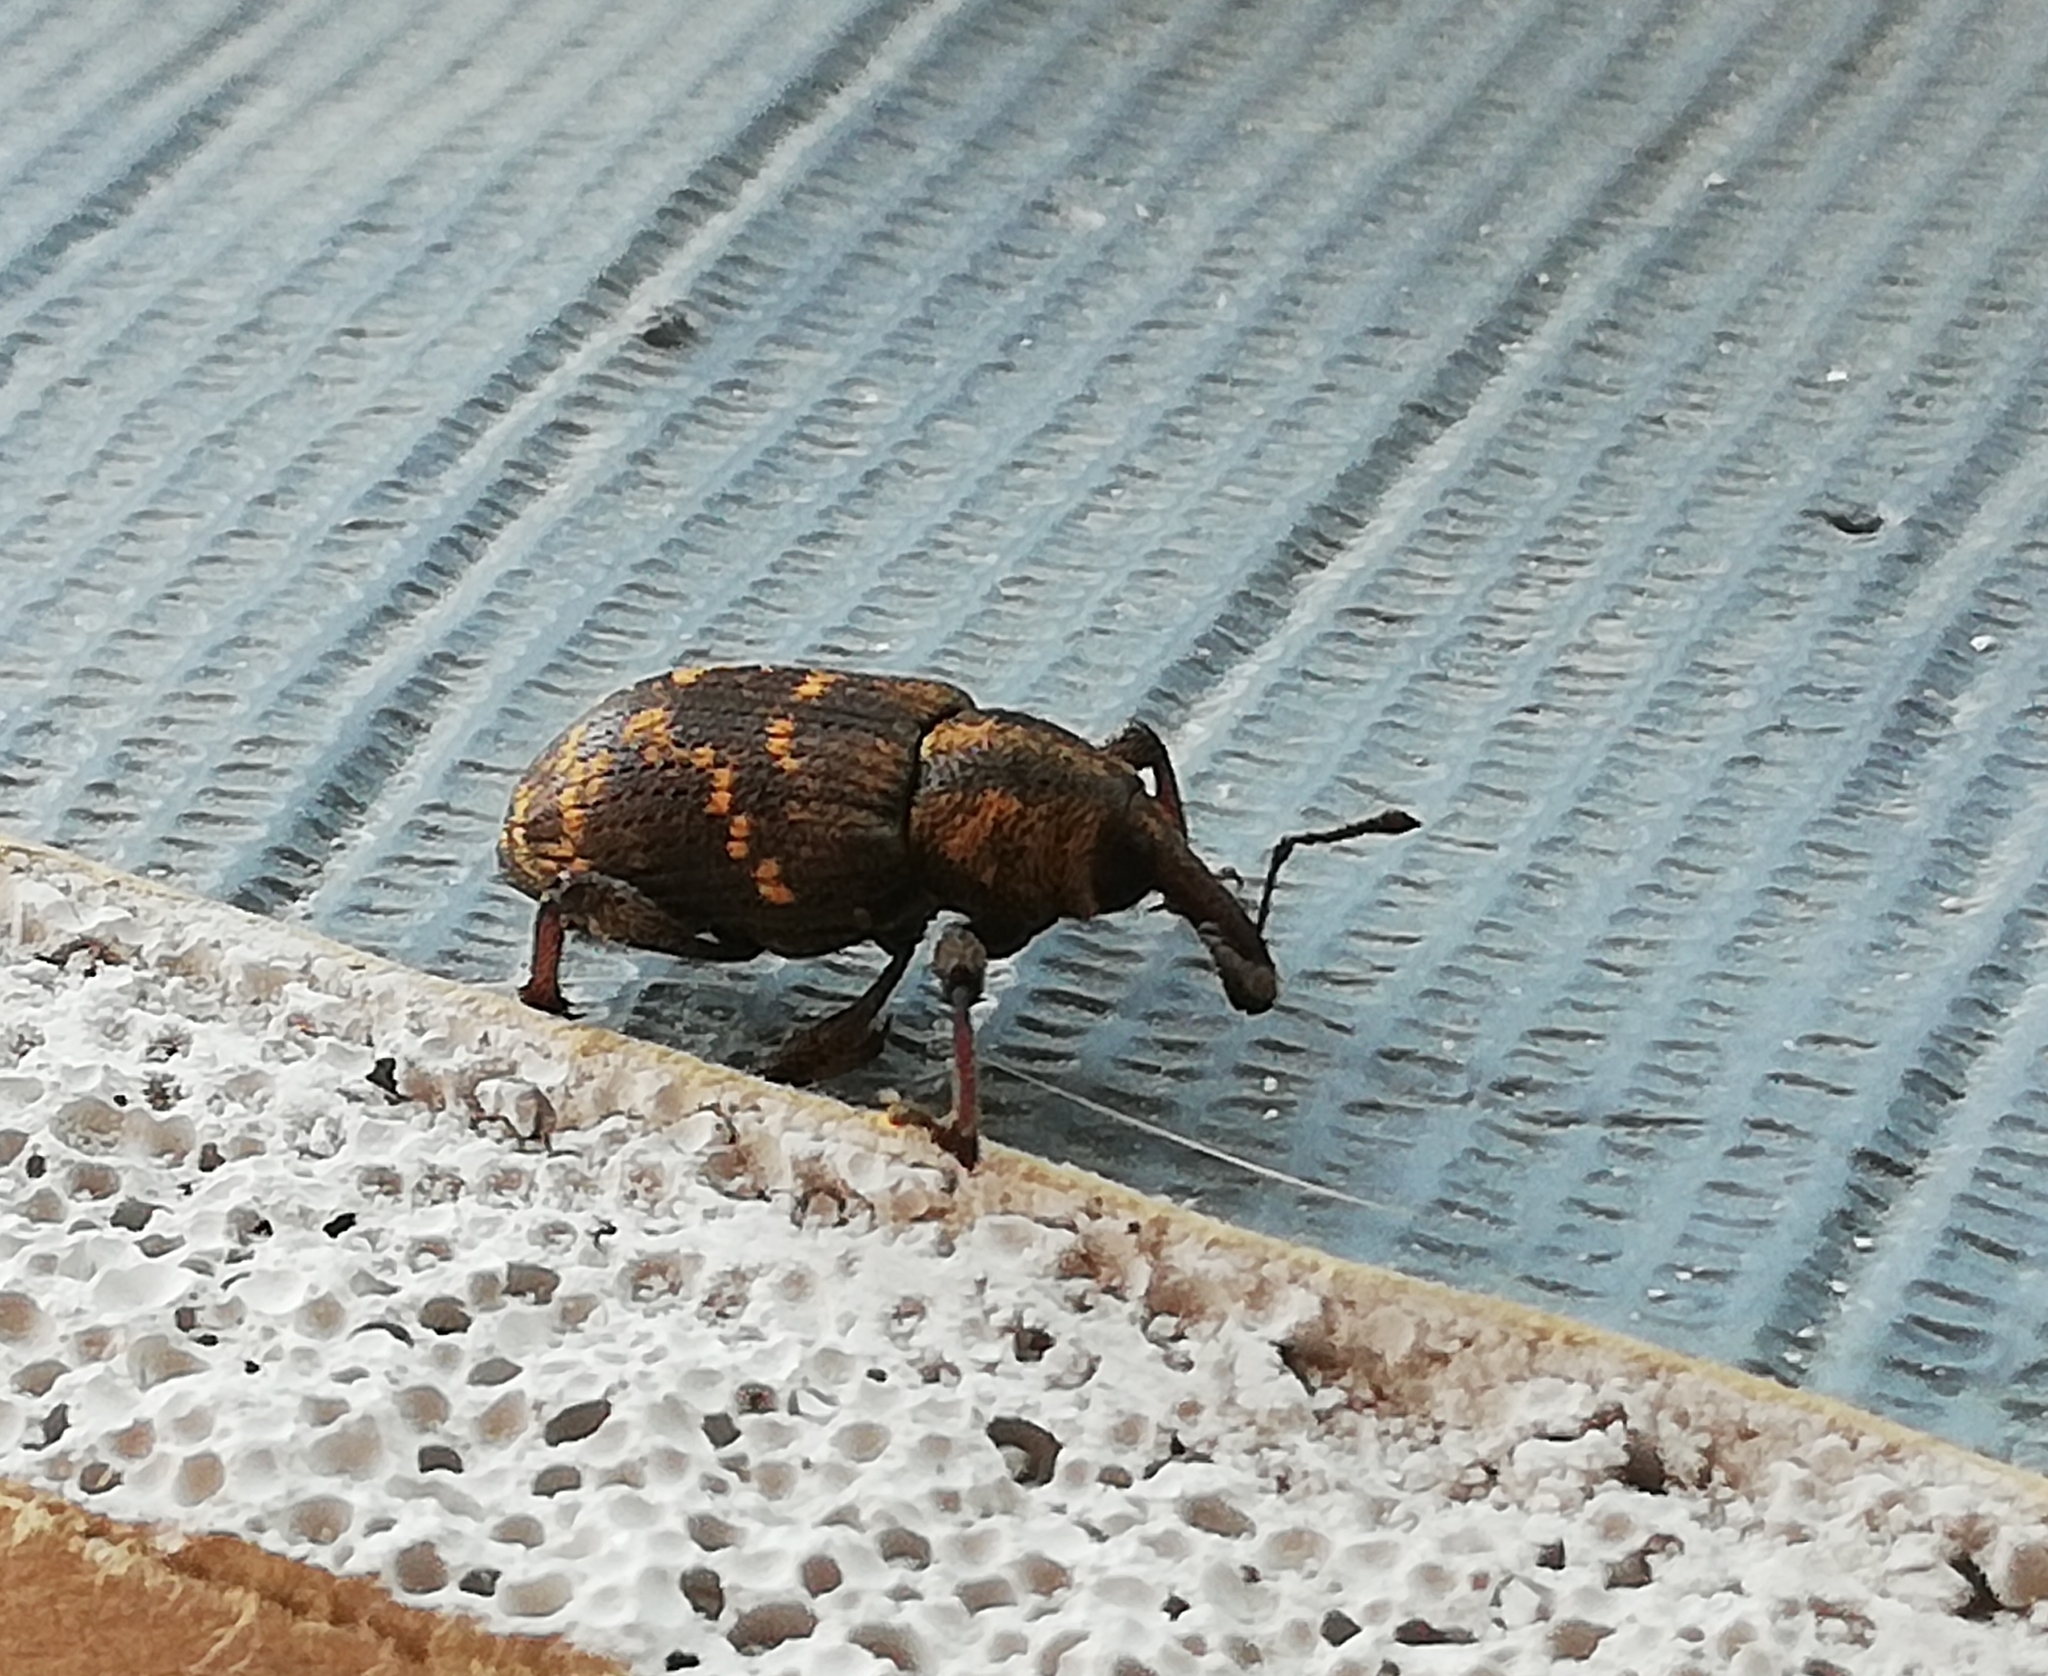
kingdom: Animalia
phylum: Arthropoda
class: Insecta
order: Coleoptera
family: Curculionidae
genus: Hylobius
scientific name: Hylobius abietis
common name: Large pine weevil
